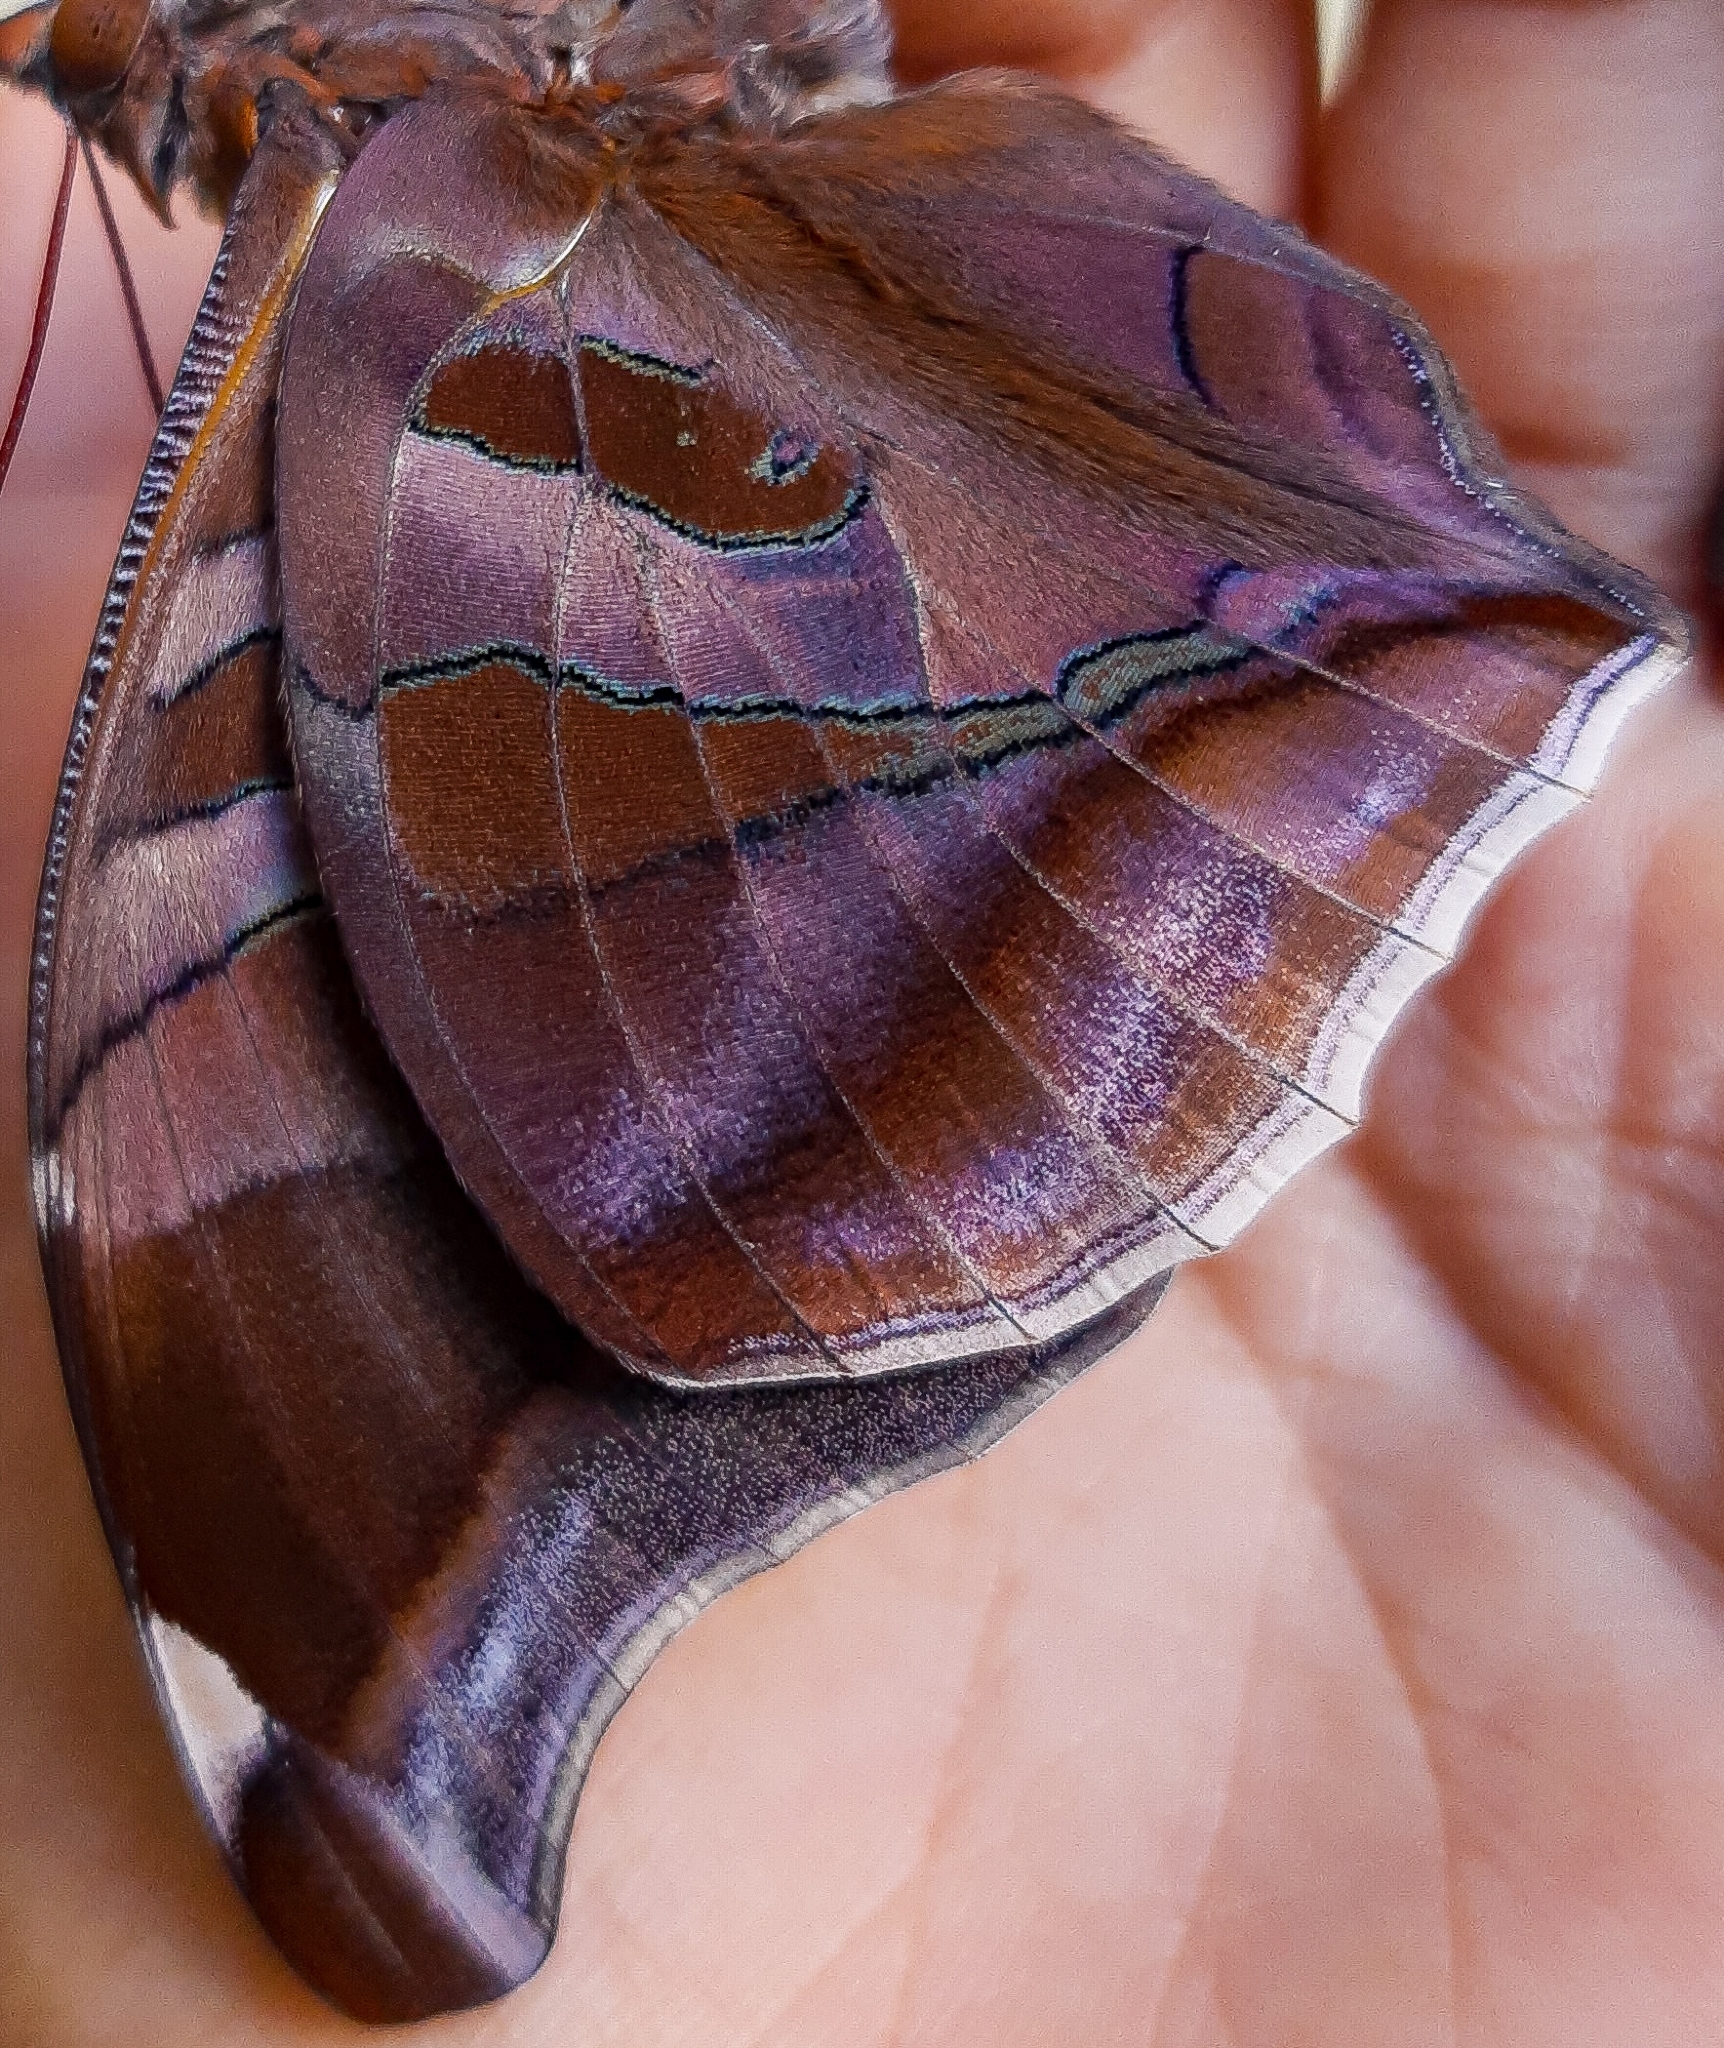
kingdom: Animalia
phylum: Arthropoda
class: Insecta
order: Lepidoptera
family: Nymphalidae
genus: Historis
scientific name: Historis odius
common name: Orion cecropian
